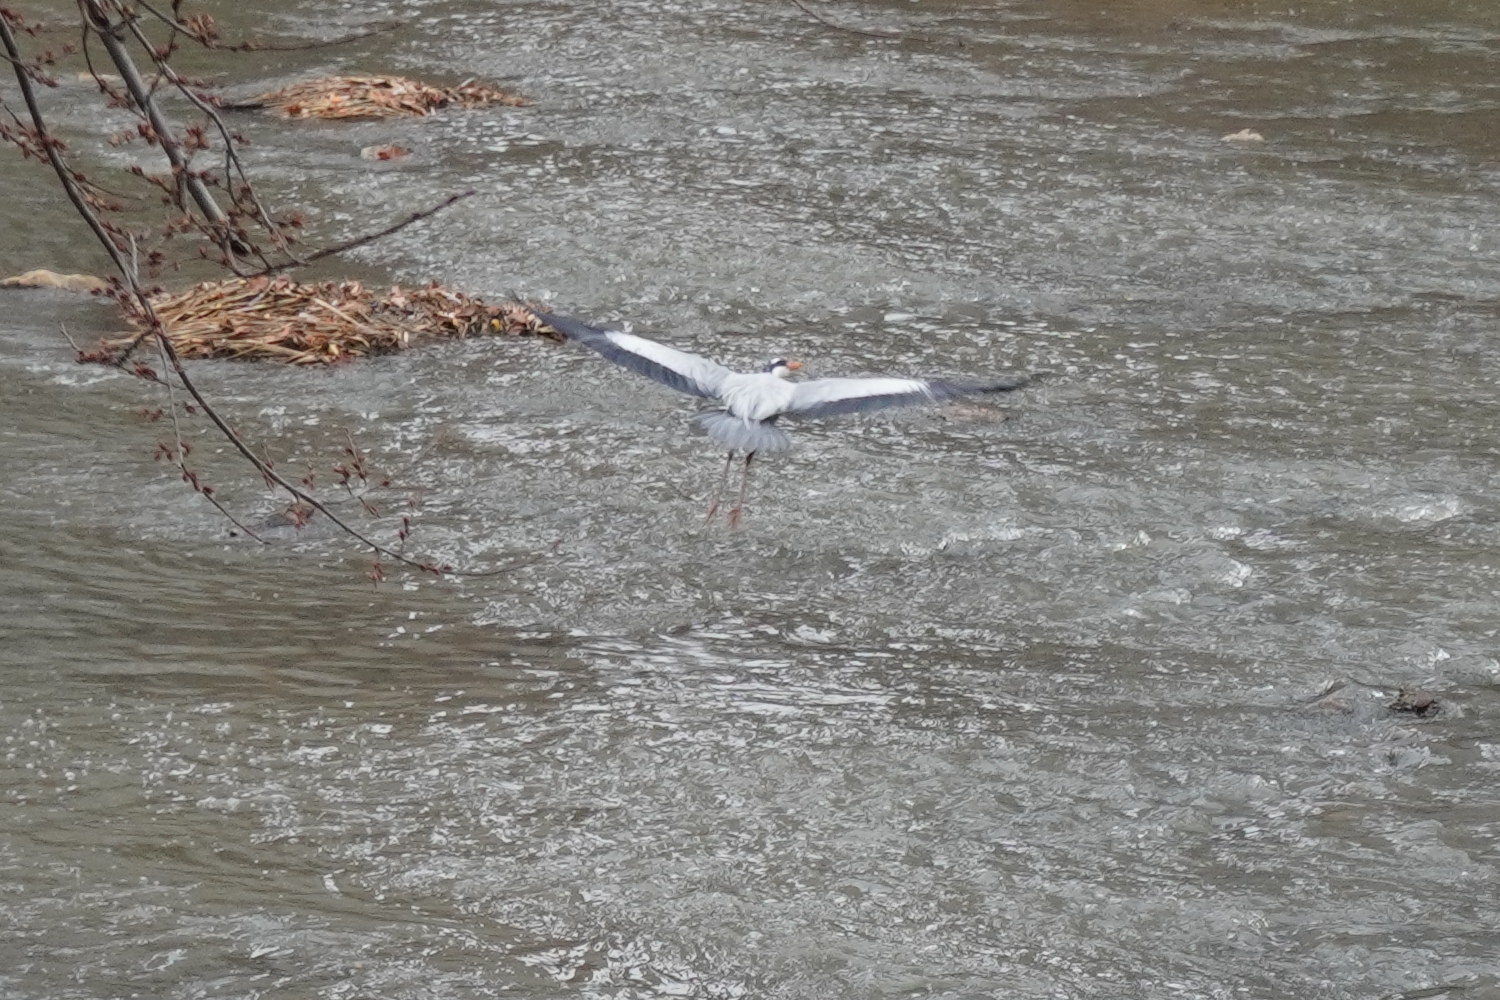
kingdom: Animalia
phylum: Chordata
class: Aves
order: Pelecaniformes
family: Ardeidae
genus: Ardea
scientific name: Ardea cinerea
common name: Grey heron
